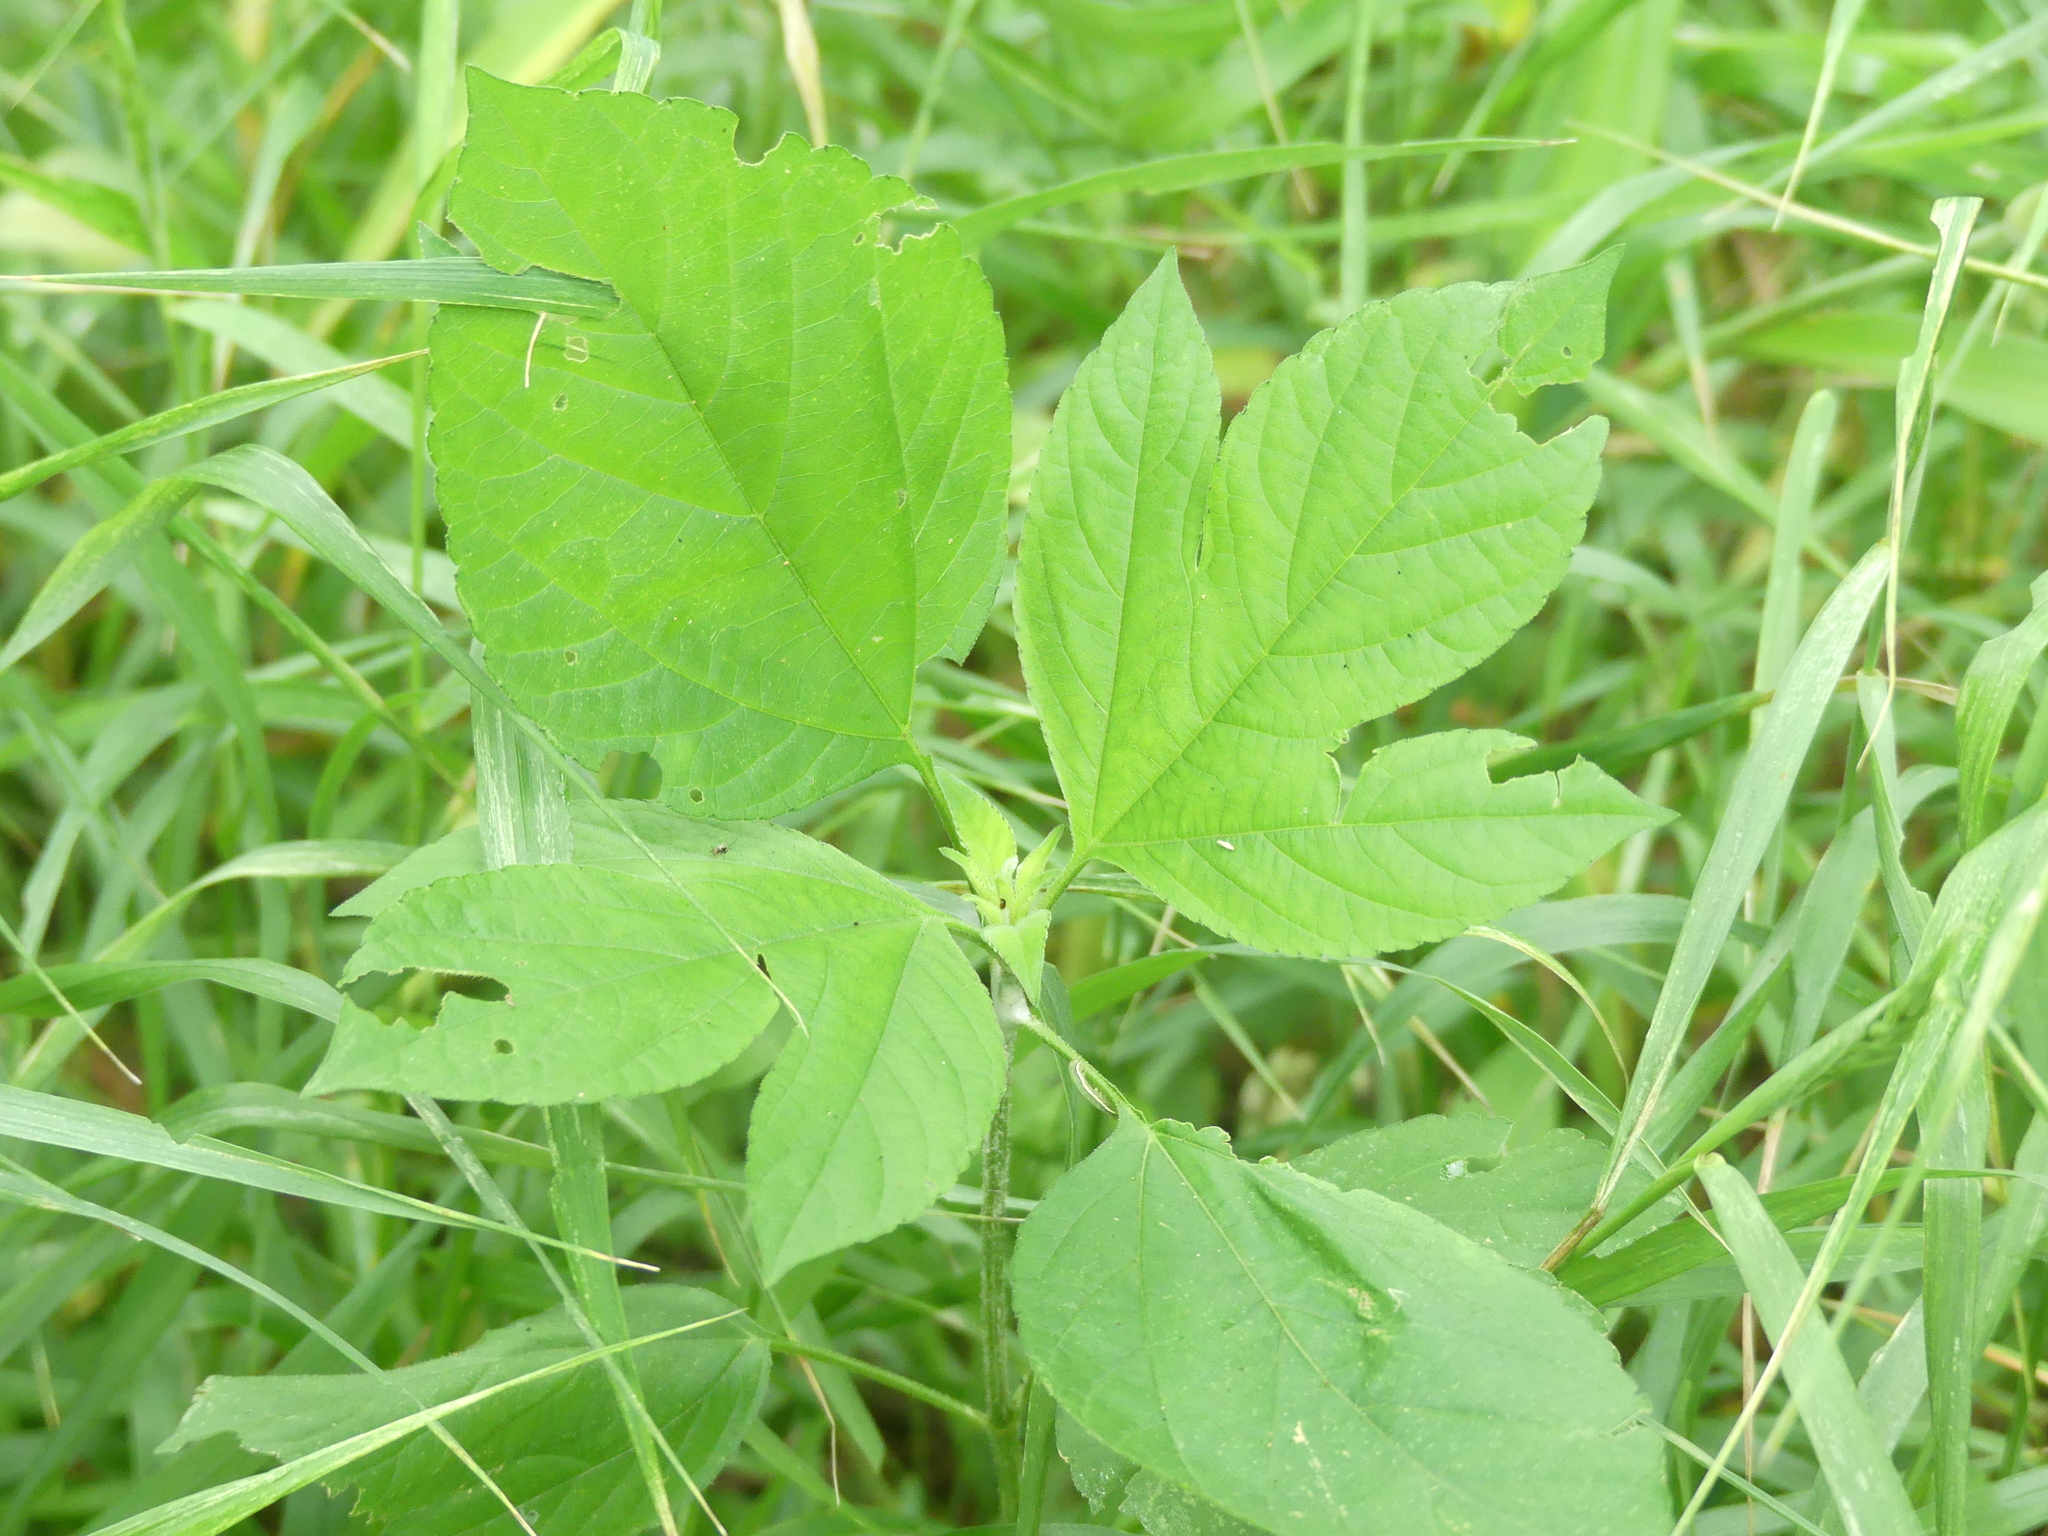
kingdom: Plantae
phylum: Tracheophyta
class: Magnoliopsida
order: Asterales
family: Asteraceae
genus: Ambrosia
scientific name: Ambrosia trifida
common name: Giant ragweed
